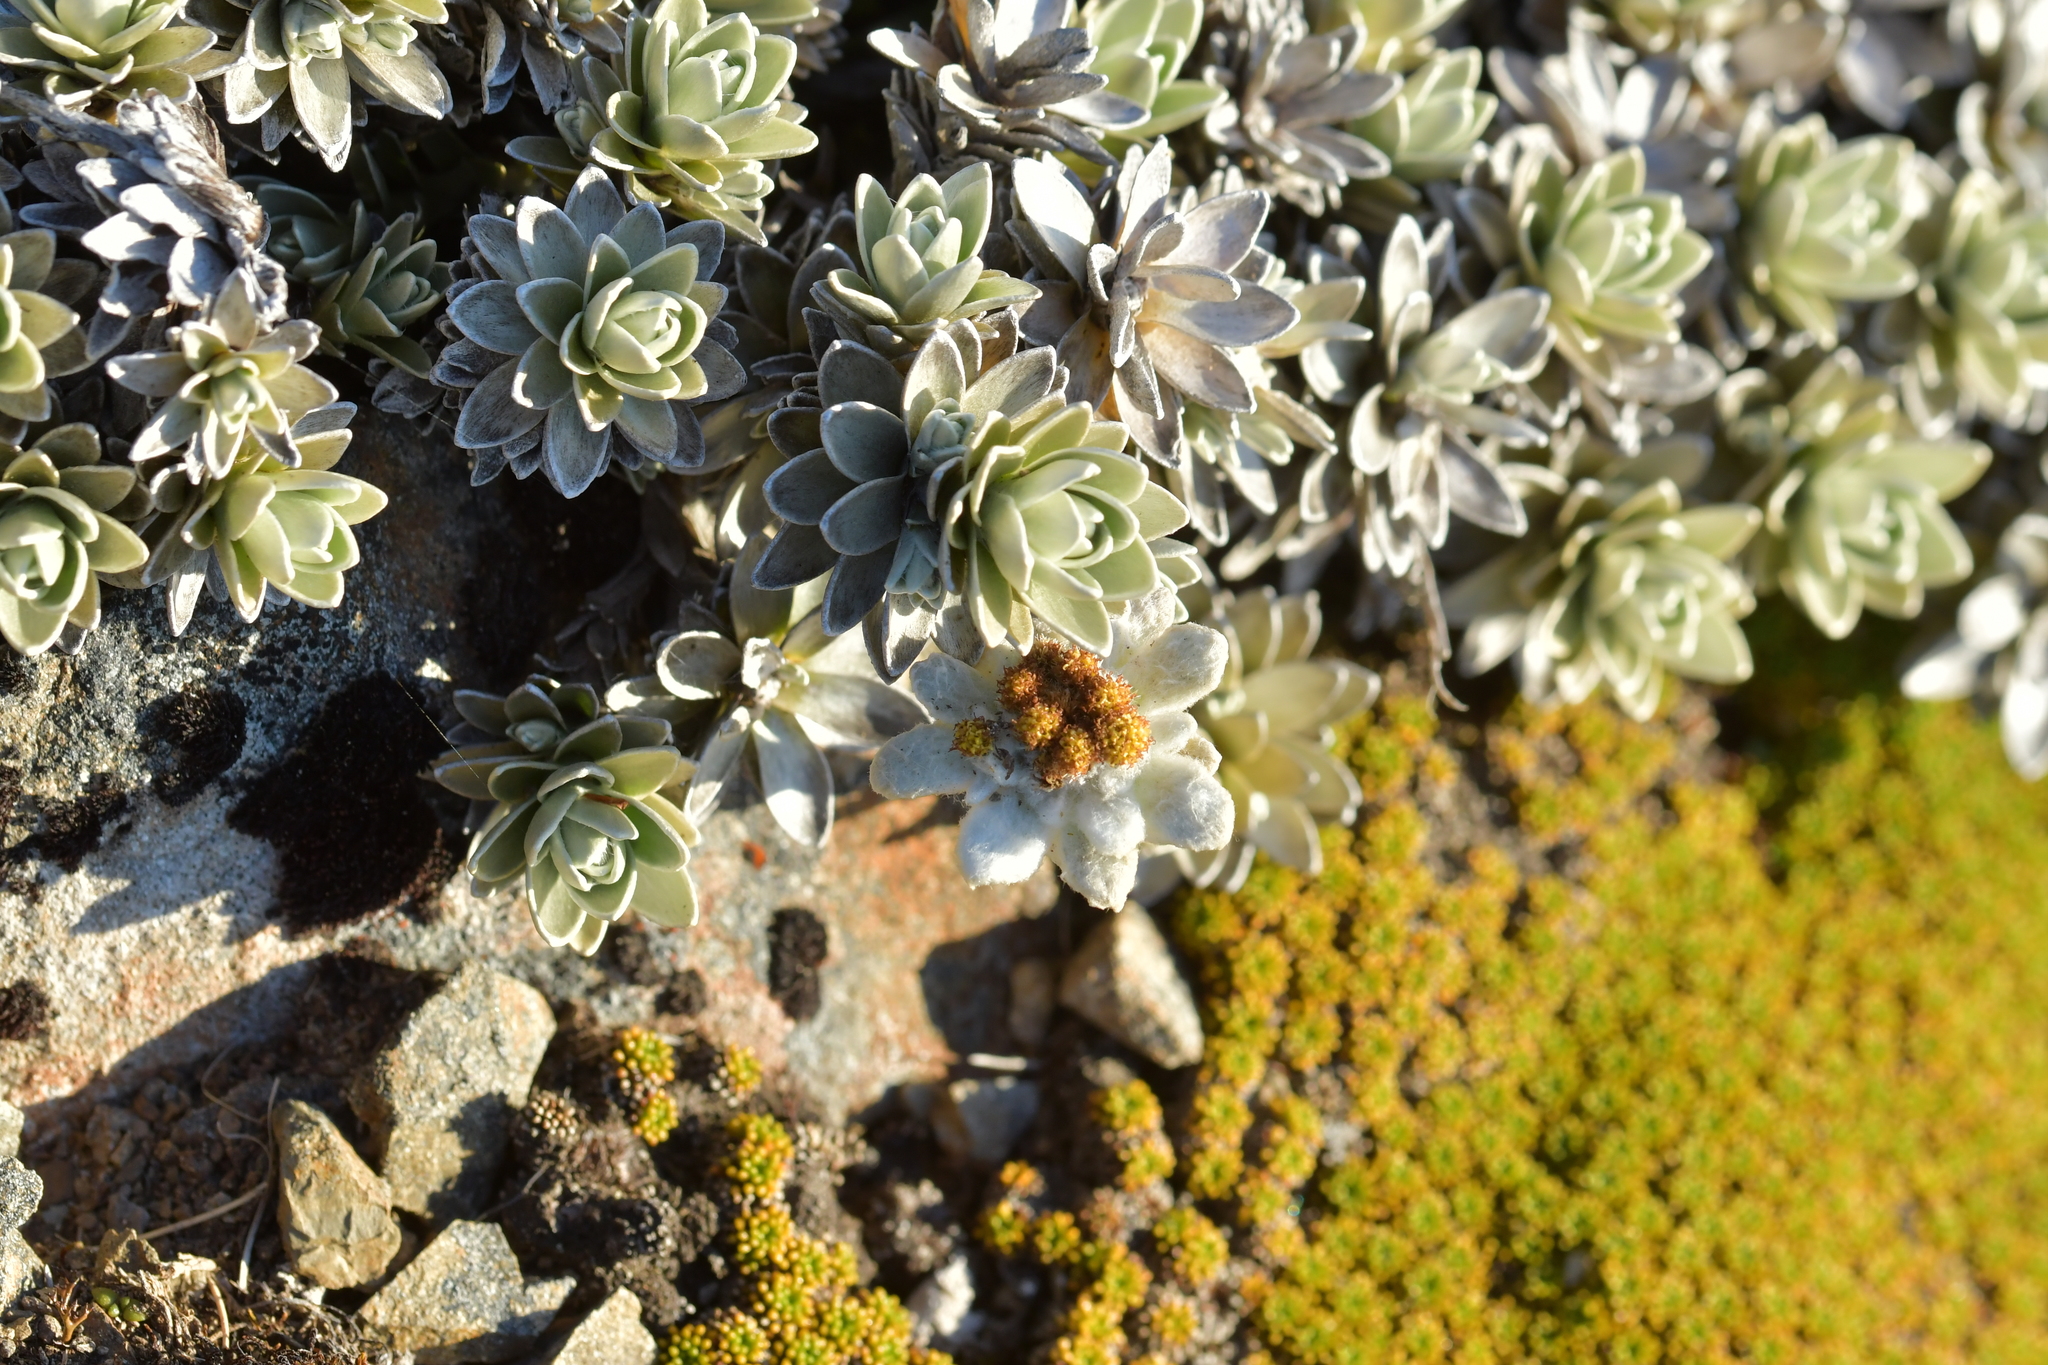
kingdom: Plantae
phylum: Tracheophyta
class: Magnoliopsida
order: Asterales
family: Asteraceae
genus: Leucogenes
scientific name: Leucogenes leontopodium
